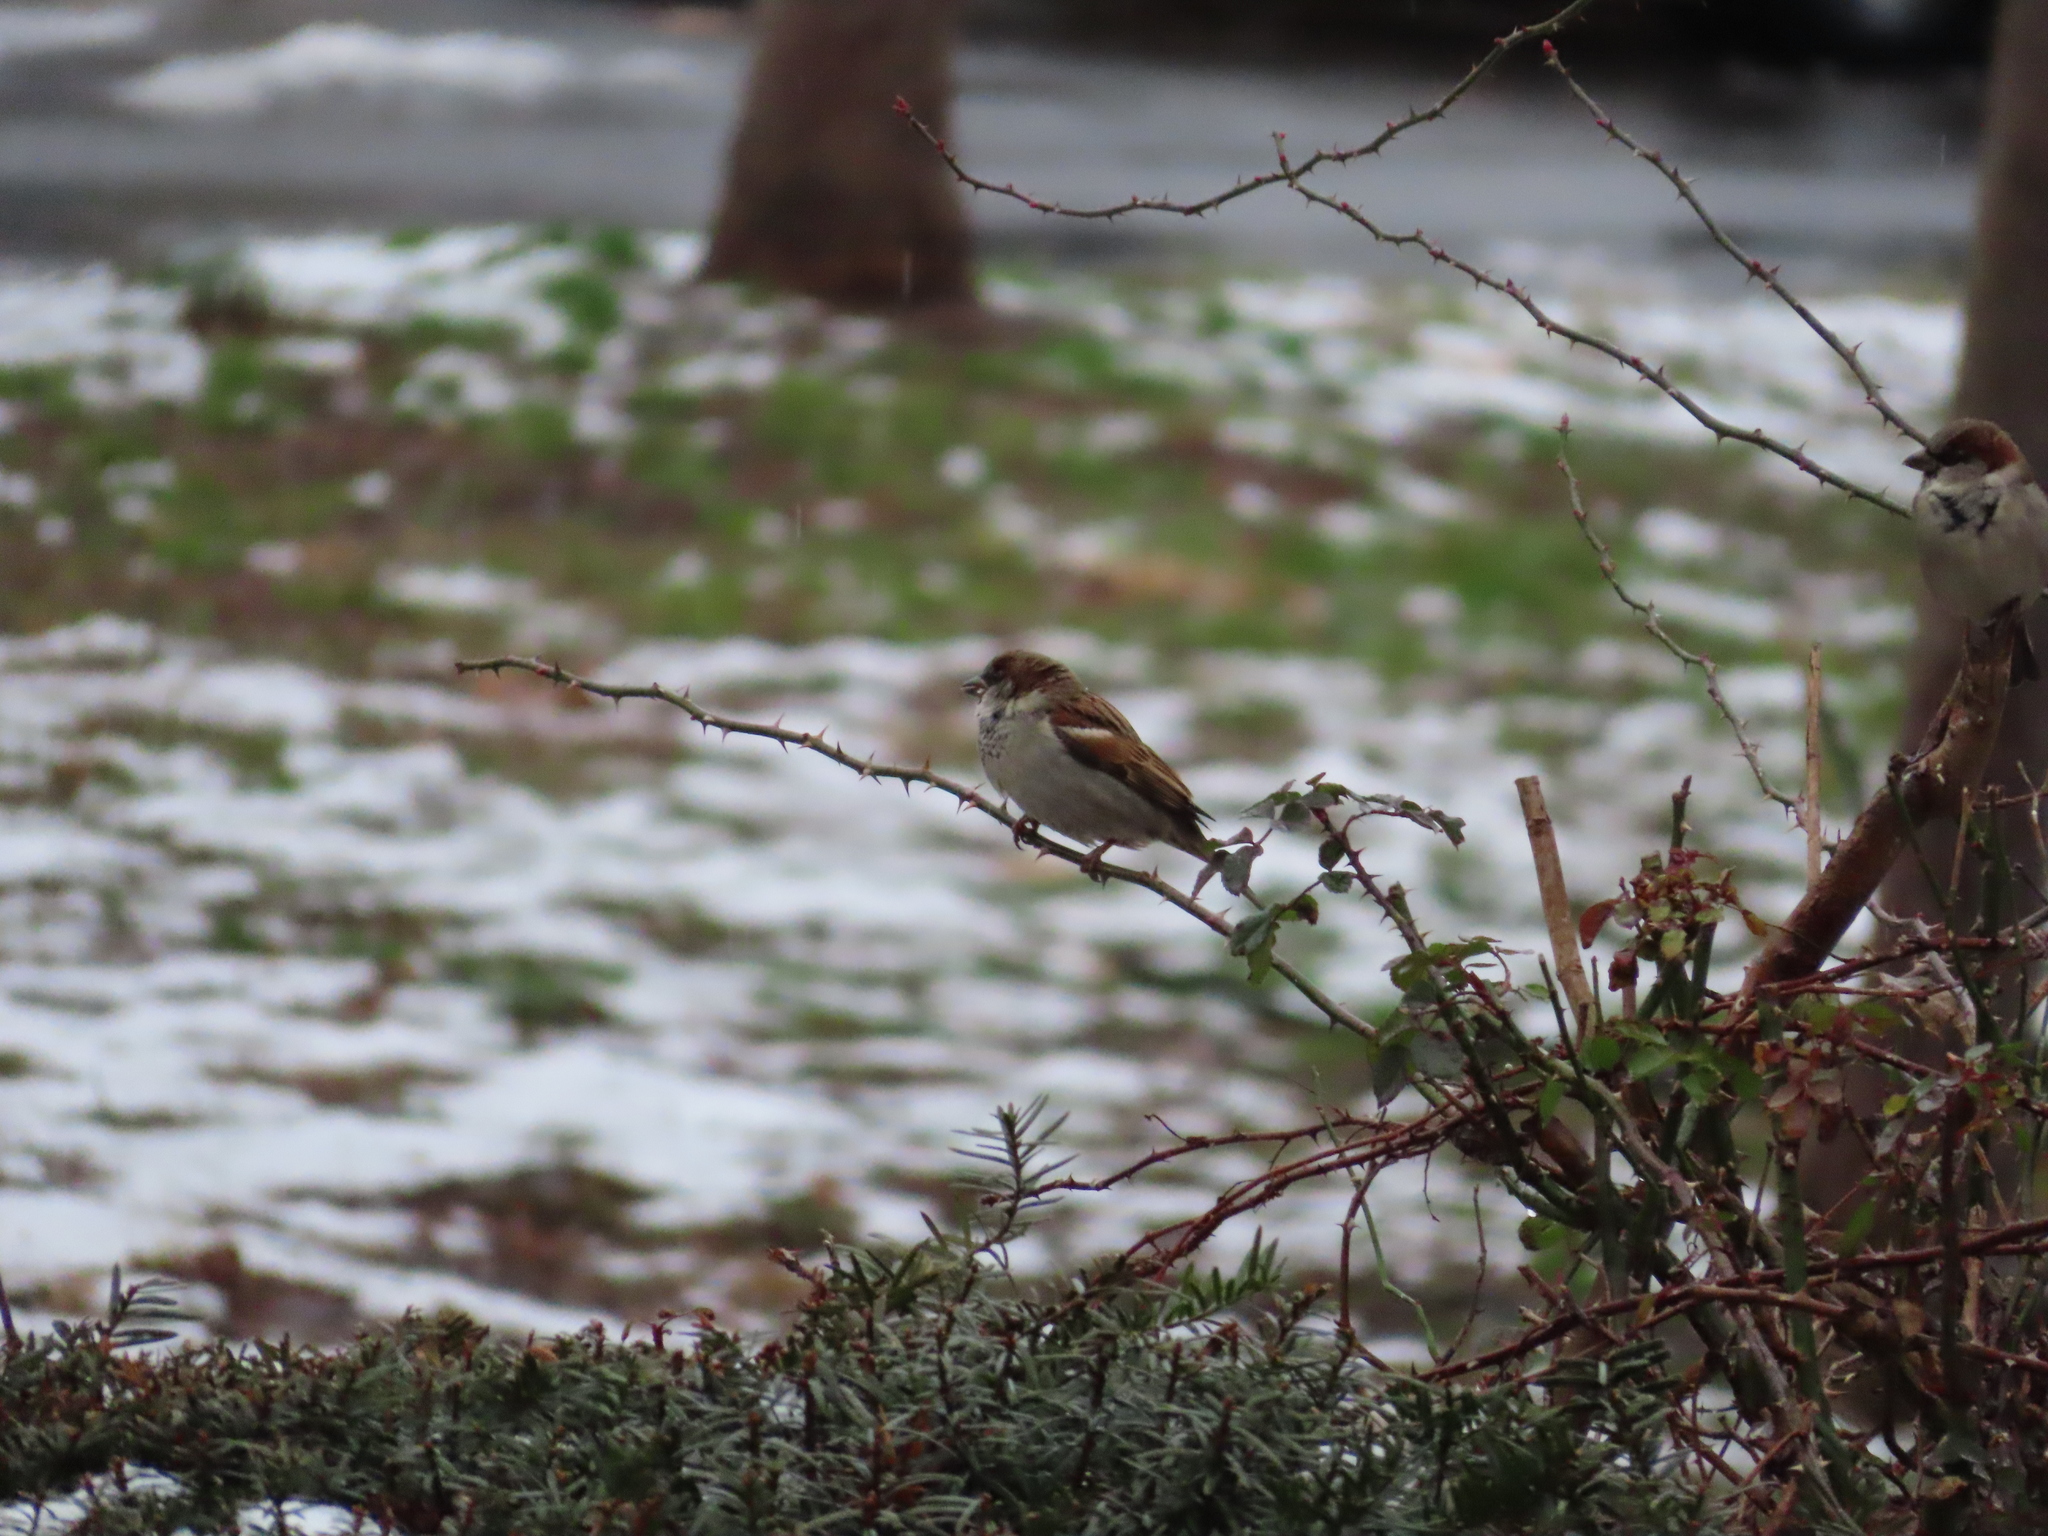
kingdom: Animalia
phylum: Chordata
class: Aves
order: Passeriformes
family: Passeridae
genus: Passer
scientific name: Passer domesticus
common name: House sparrow
